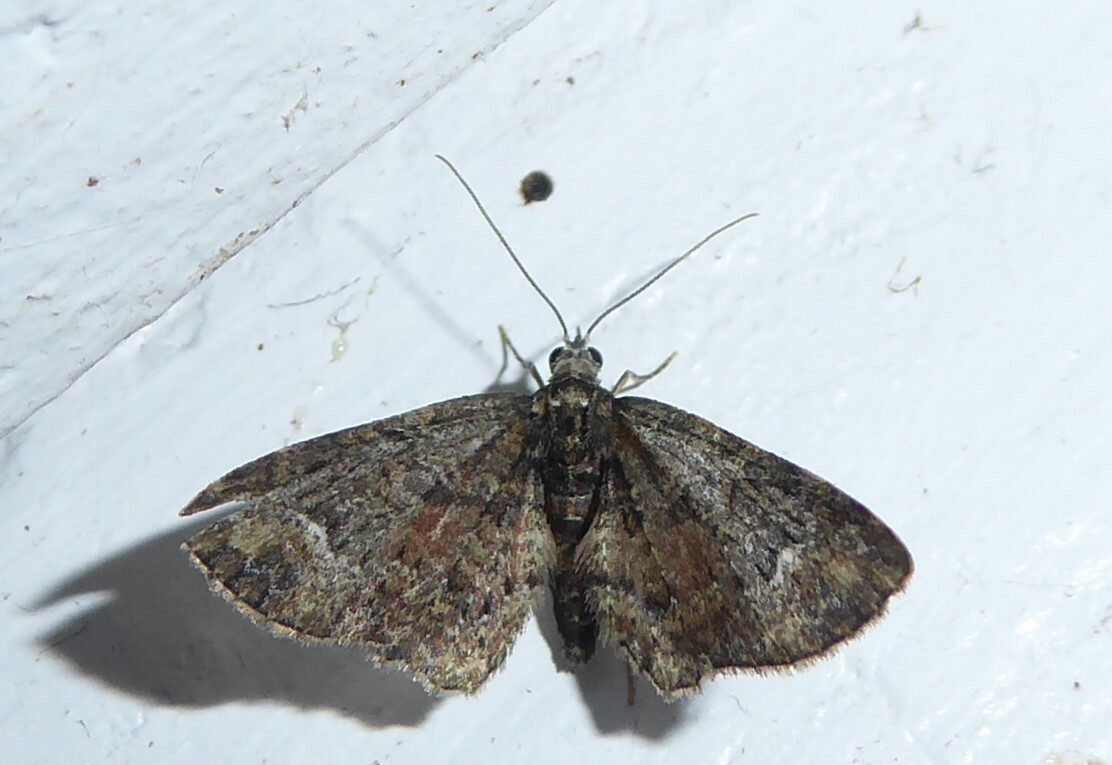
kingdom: Animalia
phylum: Arthropoda
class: Insecta
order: Lepidoptera
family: Geometridae
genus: Pasiphilodes
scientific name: Pasiphilodes testulata
